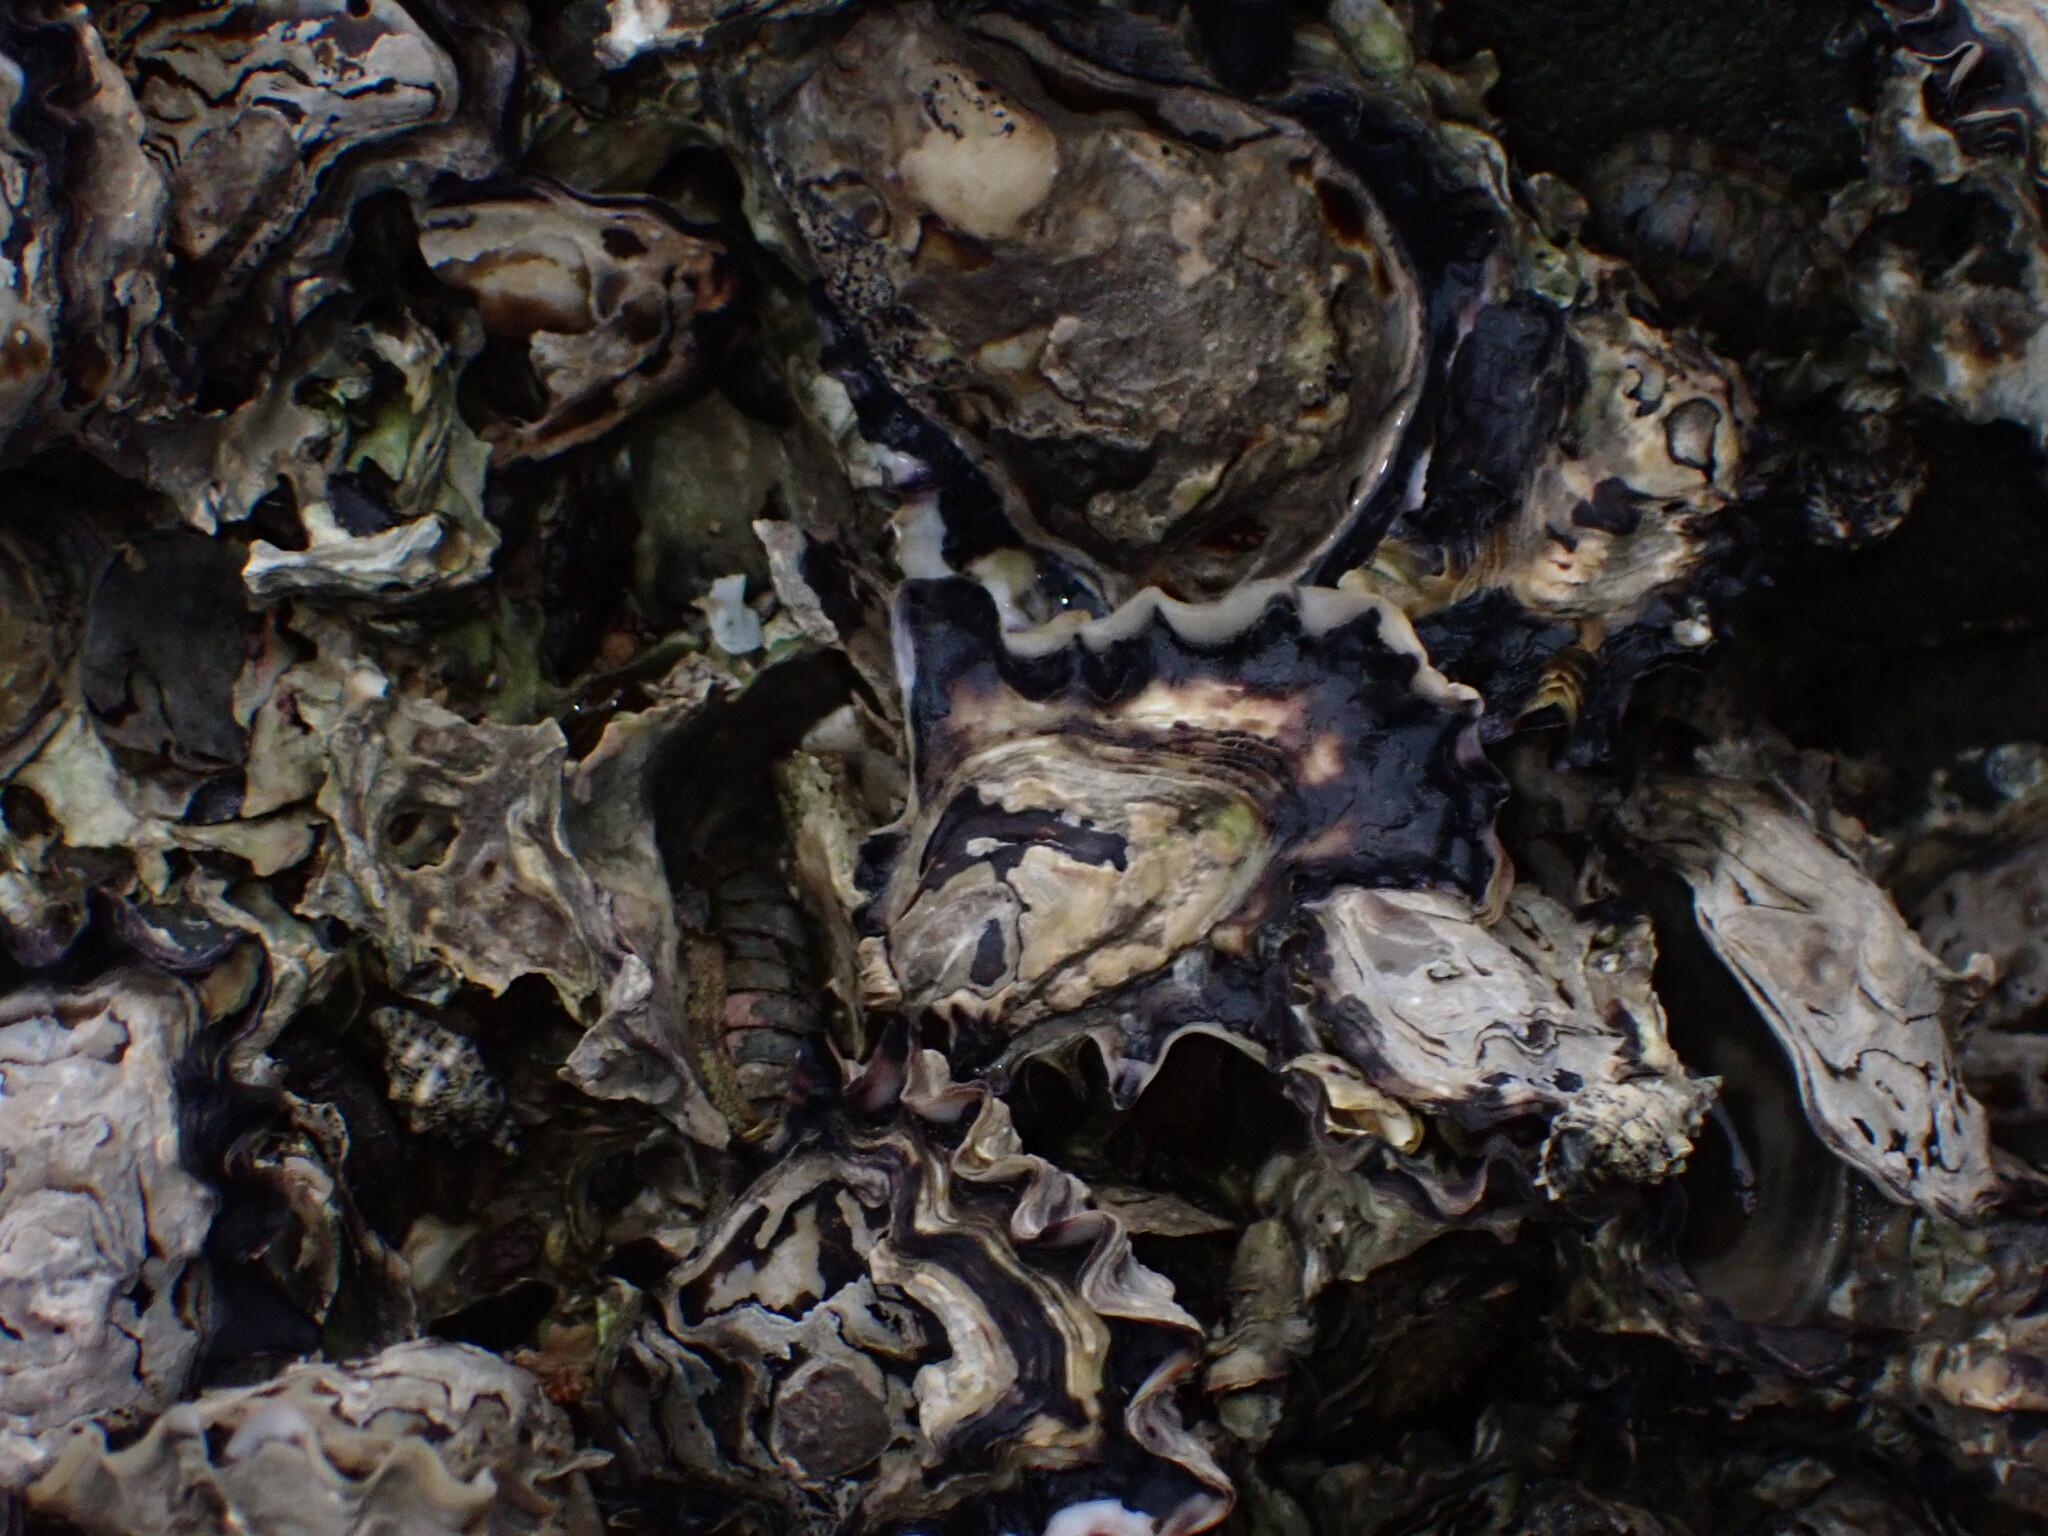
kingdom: Animalia
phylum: Mollusca
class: Bivalvia
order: Ostreida
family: Ostreidae
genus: Saccostrea
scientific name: Saccostrea glomerata
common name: Sydney cupped oyster
